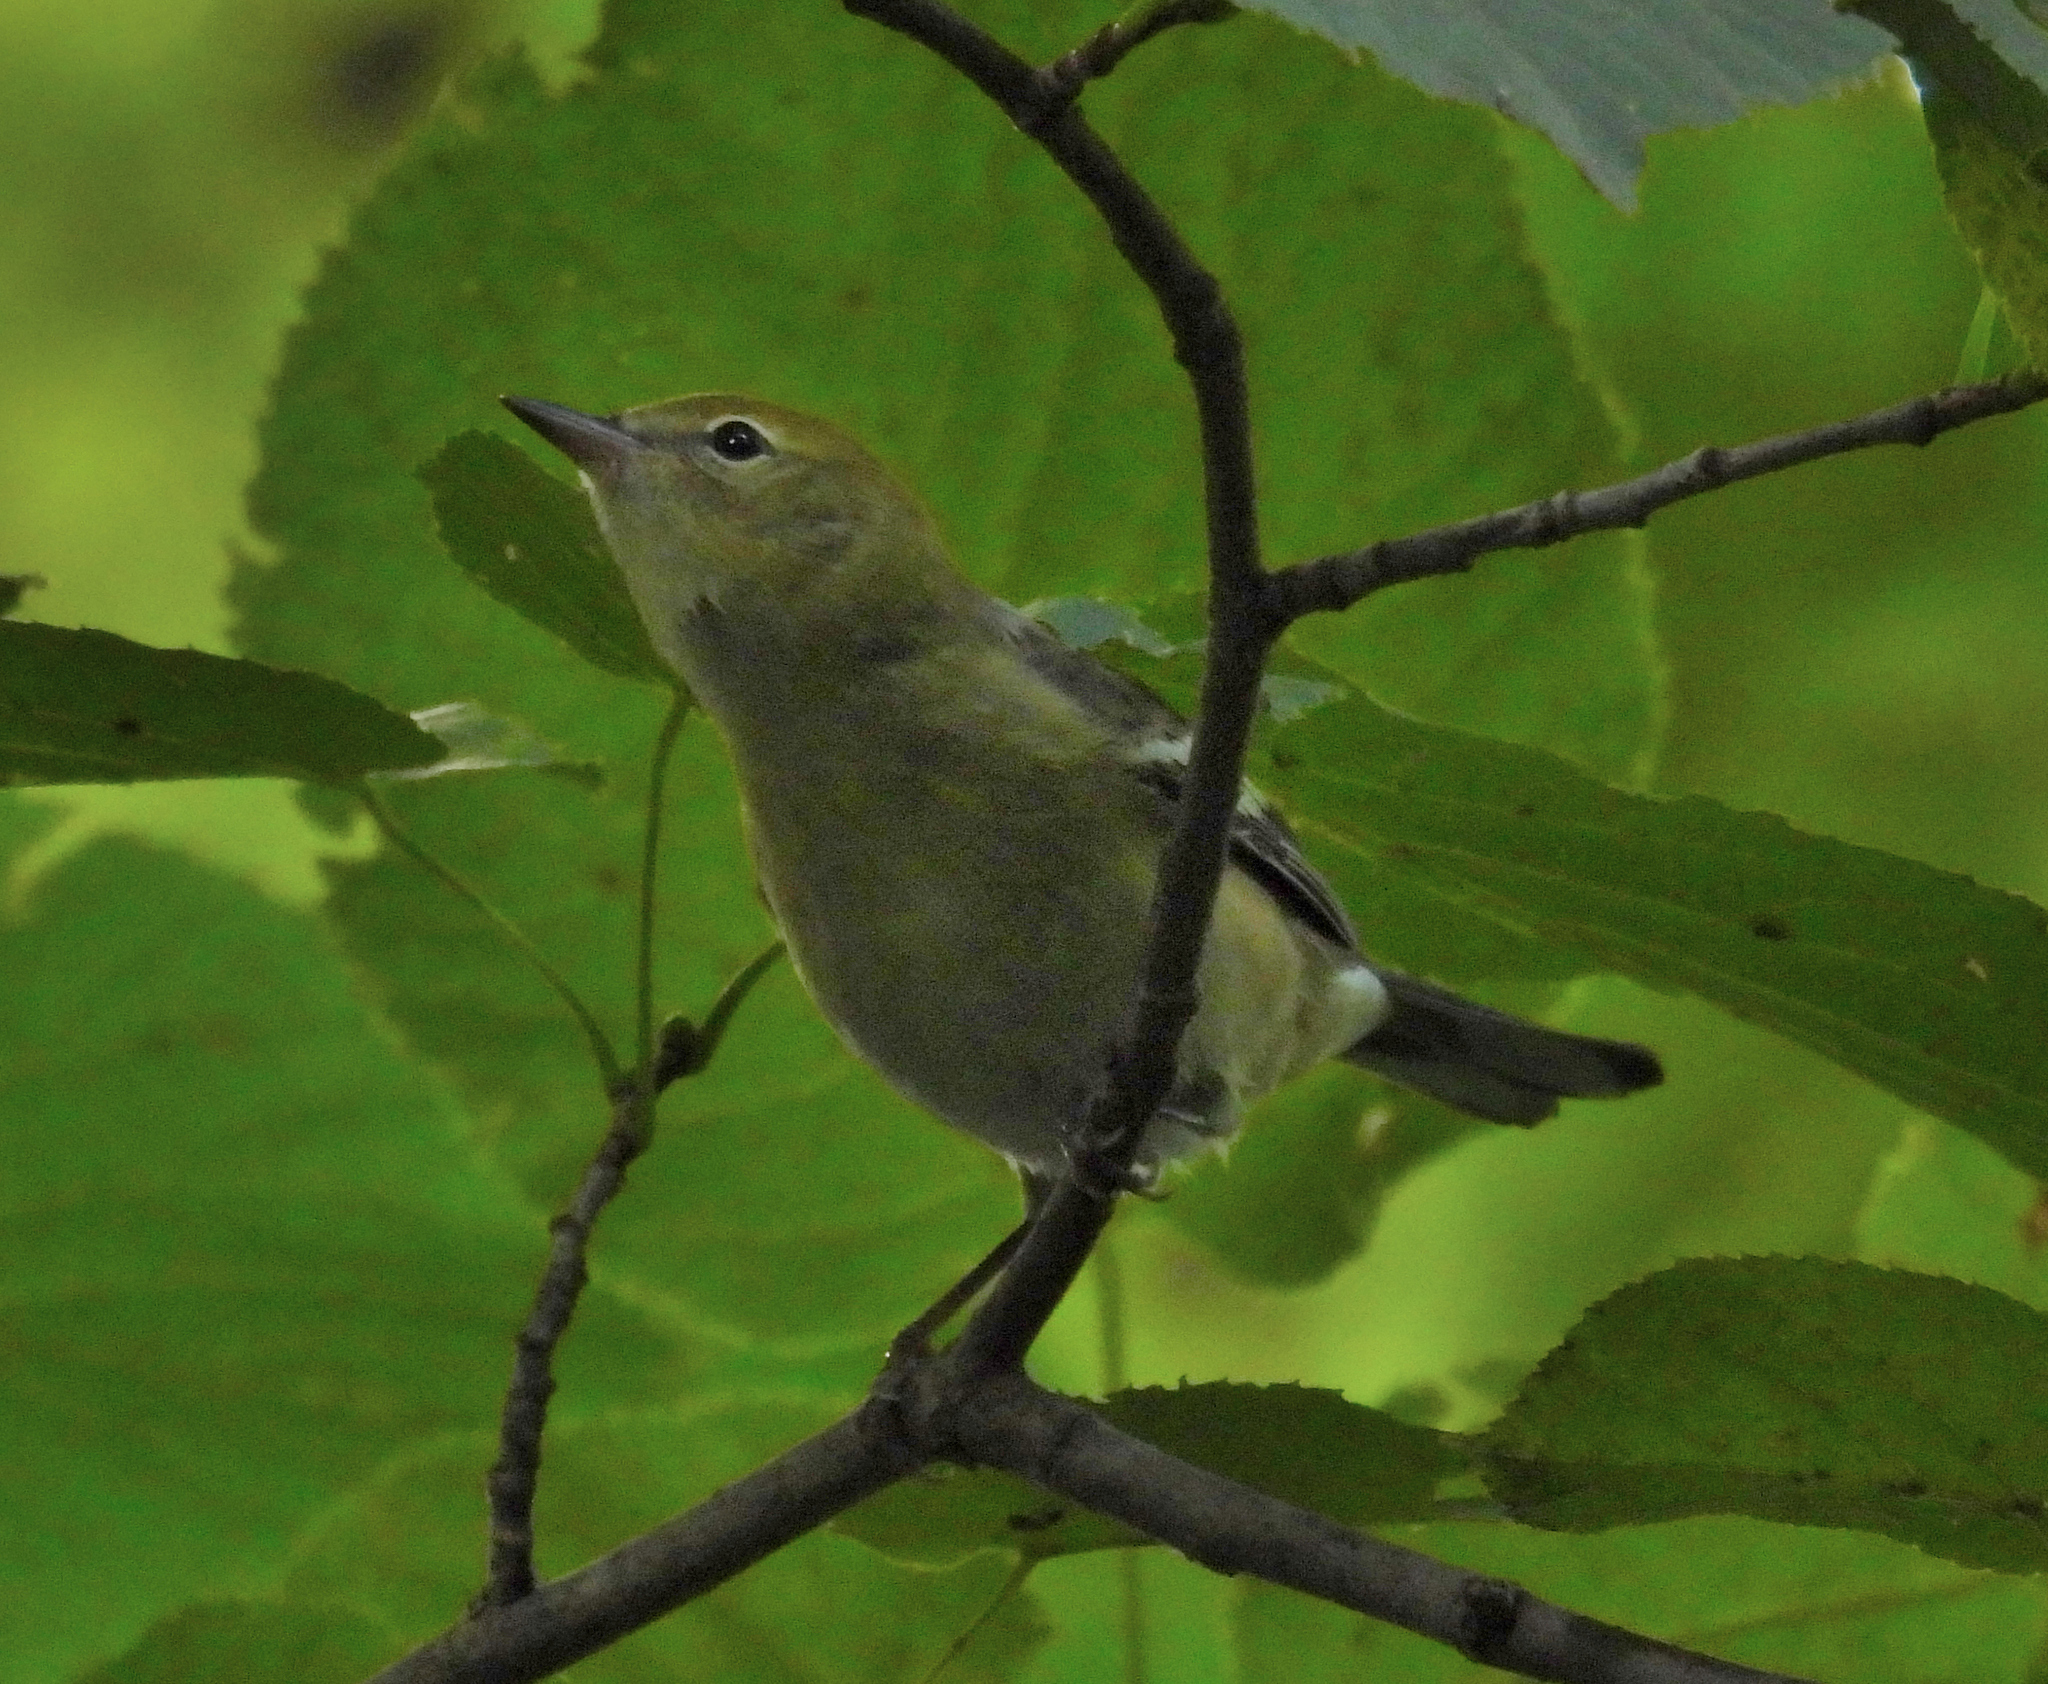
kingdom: Animalia
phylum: Chordata
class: Aves
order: Passeriformes
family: Parulidae
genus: Setophaga
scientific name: Setophaga castanea
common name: Bay-breasted warbler
